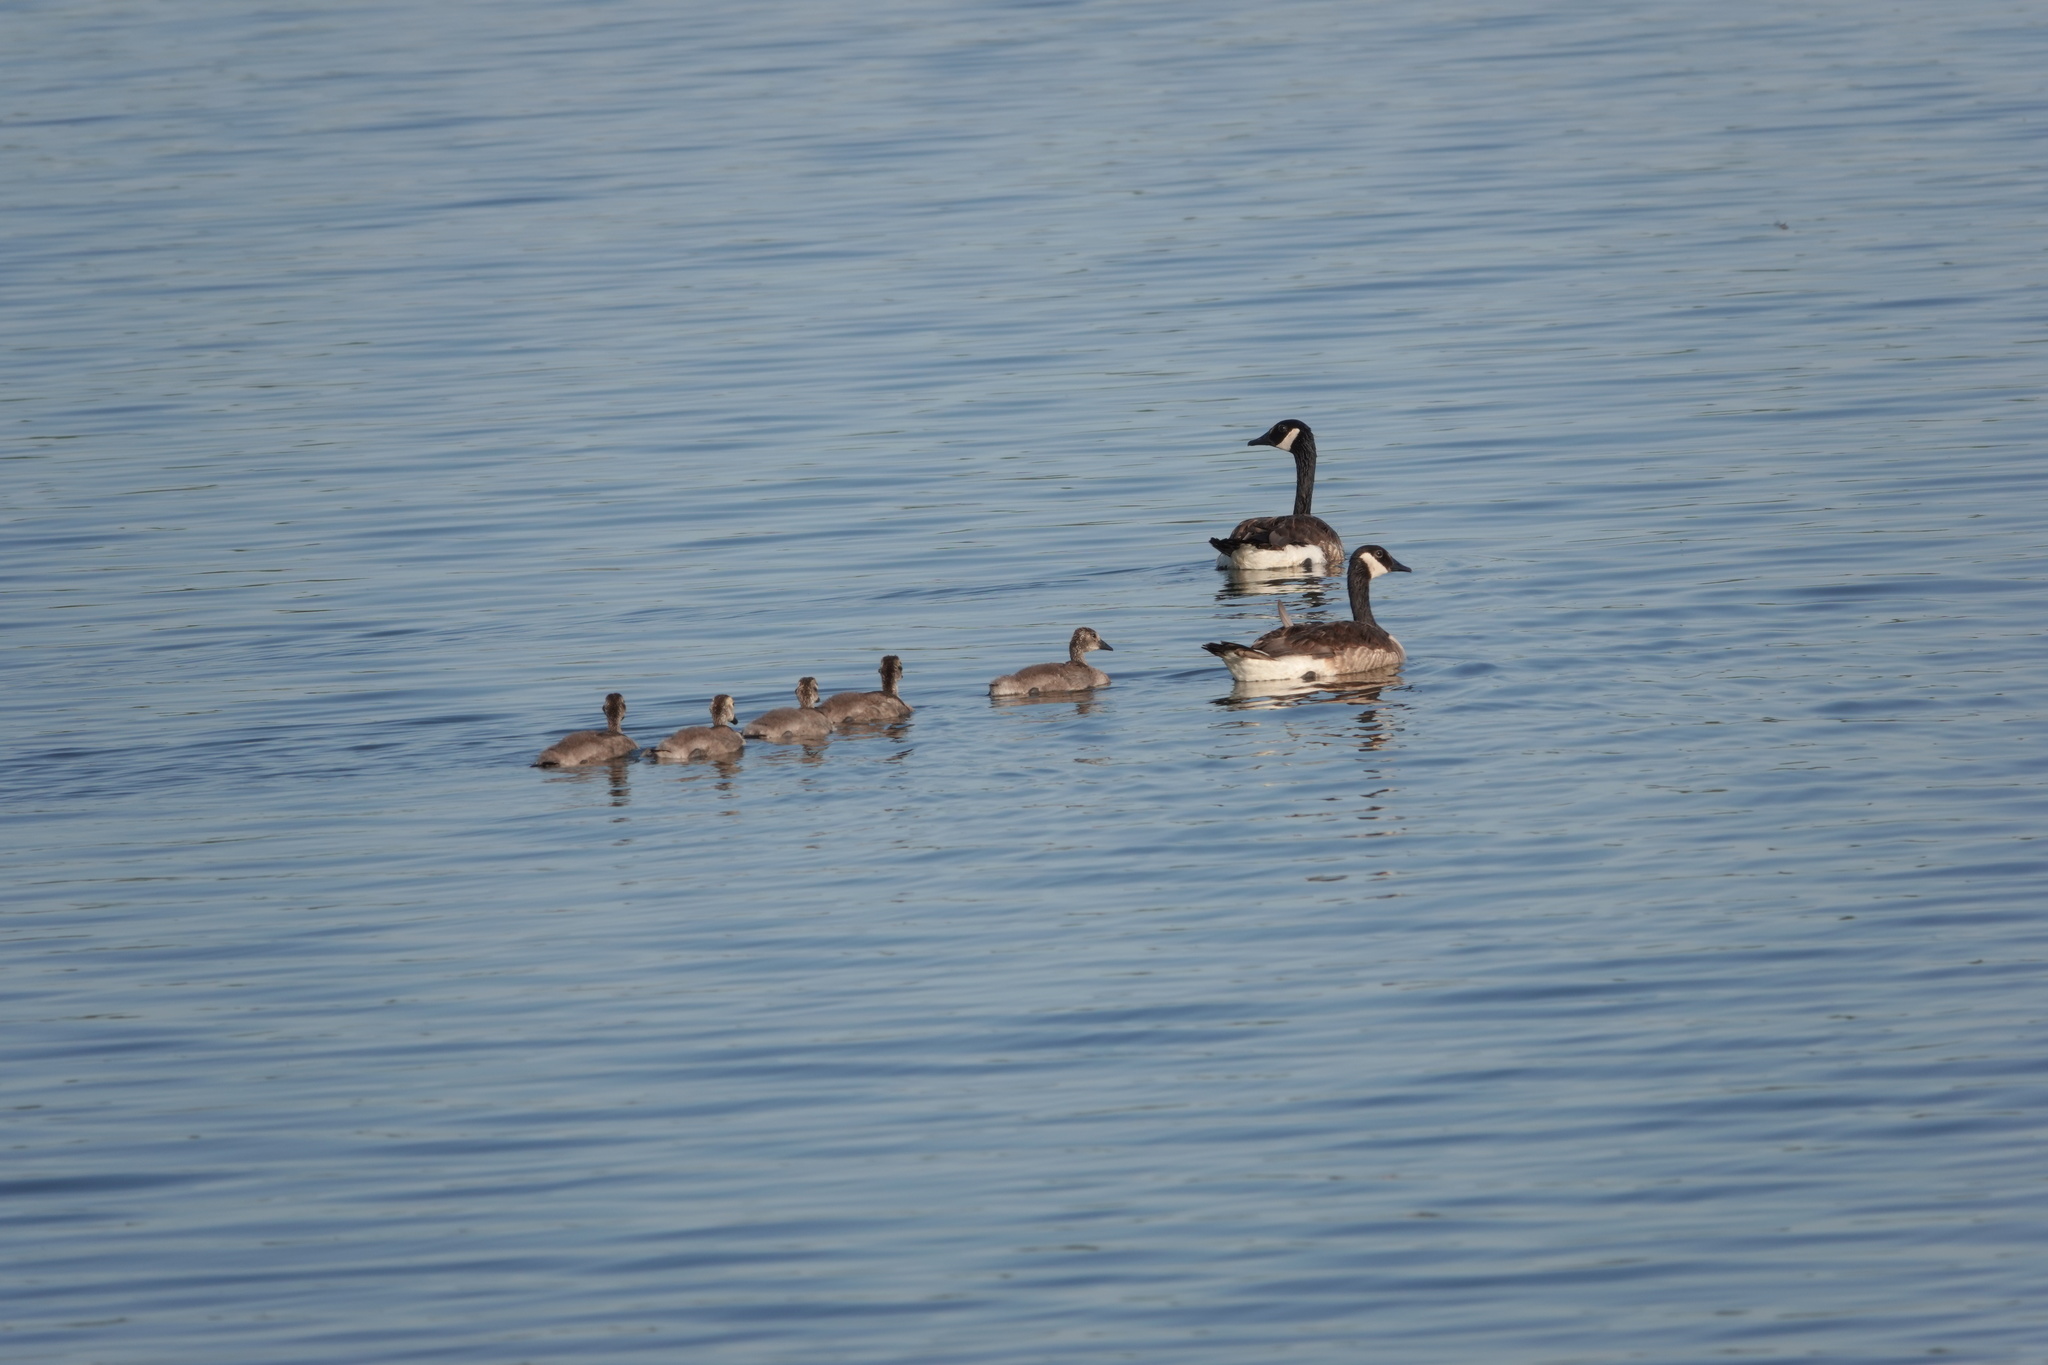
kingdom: Animalia
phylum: Chordata
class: Aves
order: Anseriformes
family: Anatidae
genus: Branta
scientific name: Branta canadensis
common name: Canada goose
